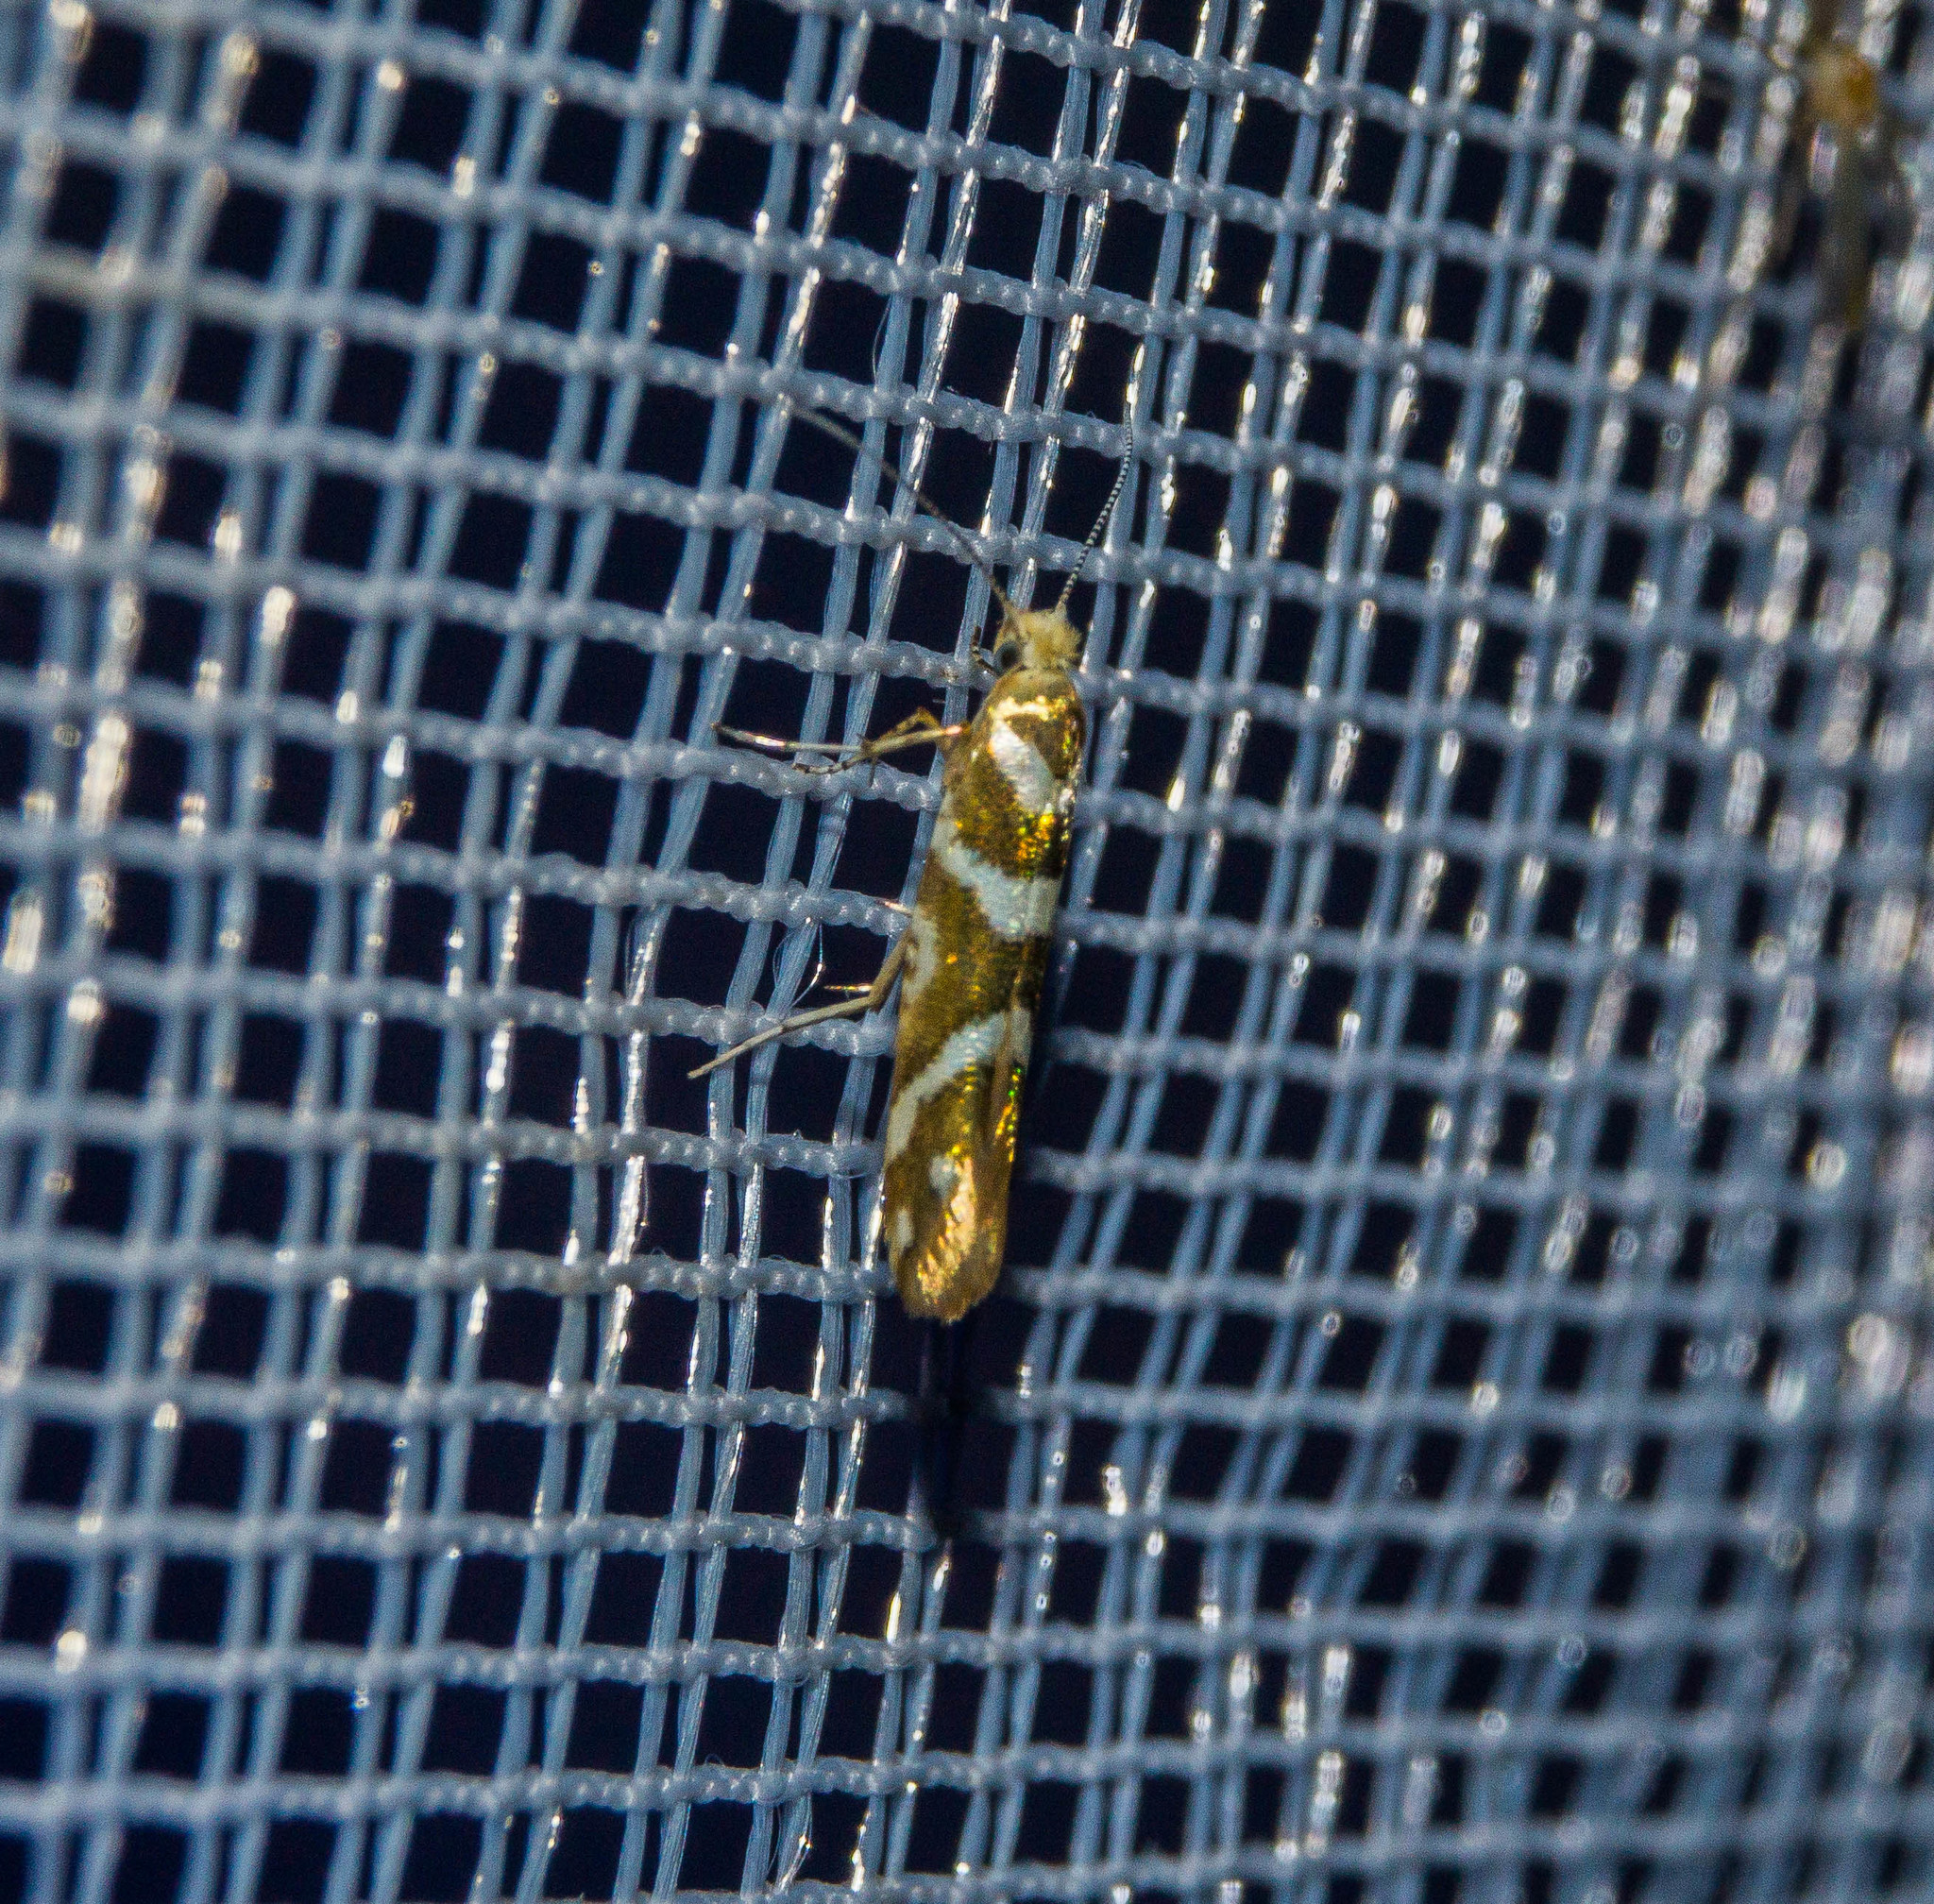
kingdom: Animalia
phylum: Arthropoda
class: Insecta
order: Lepidoptera
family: Argyresthiidae
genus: Argyresthia
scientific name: Argyresthia goedartella
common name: Golden argent
